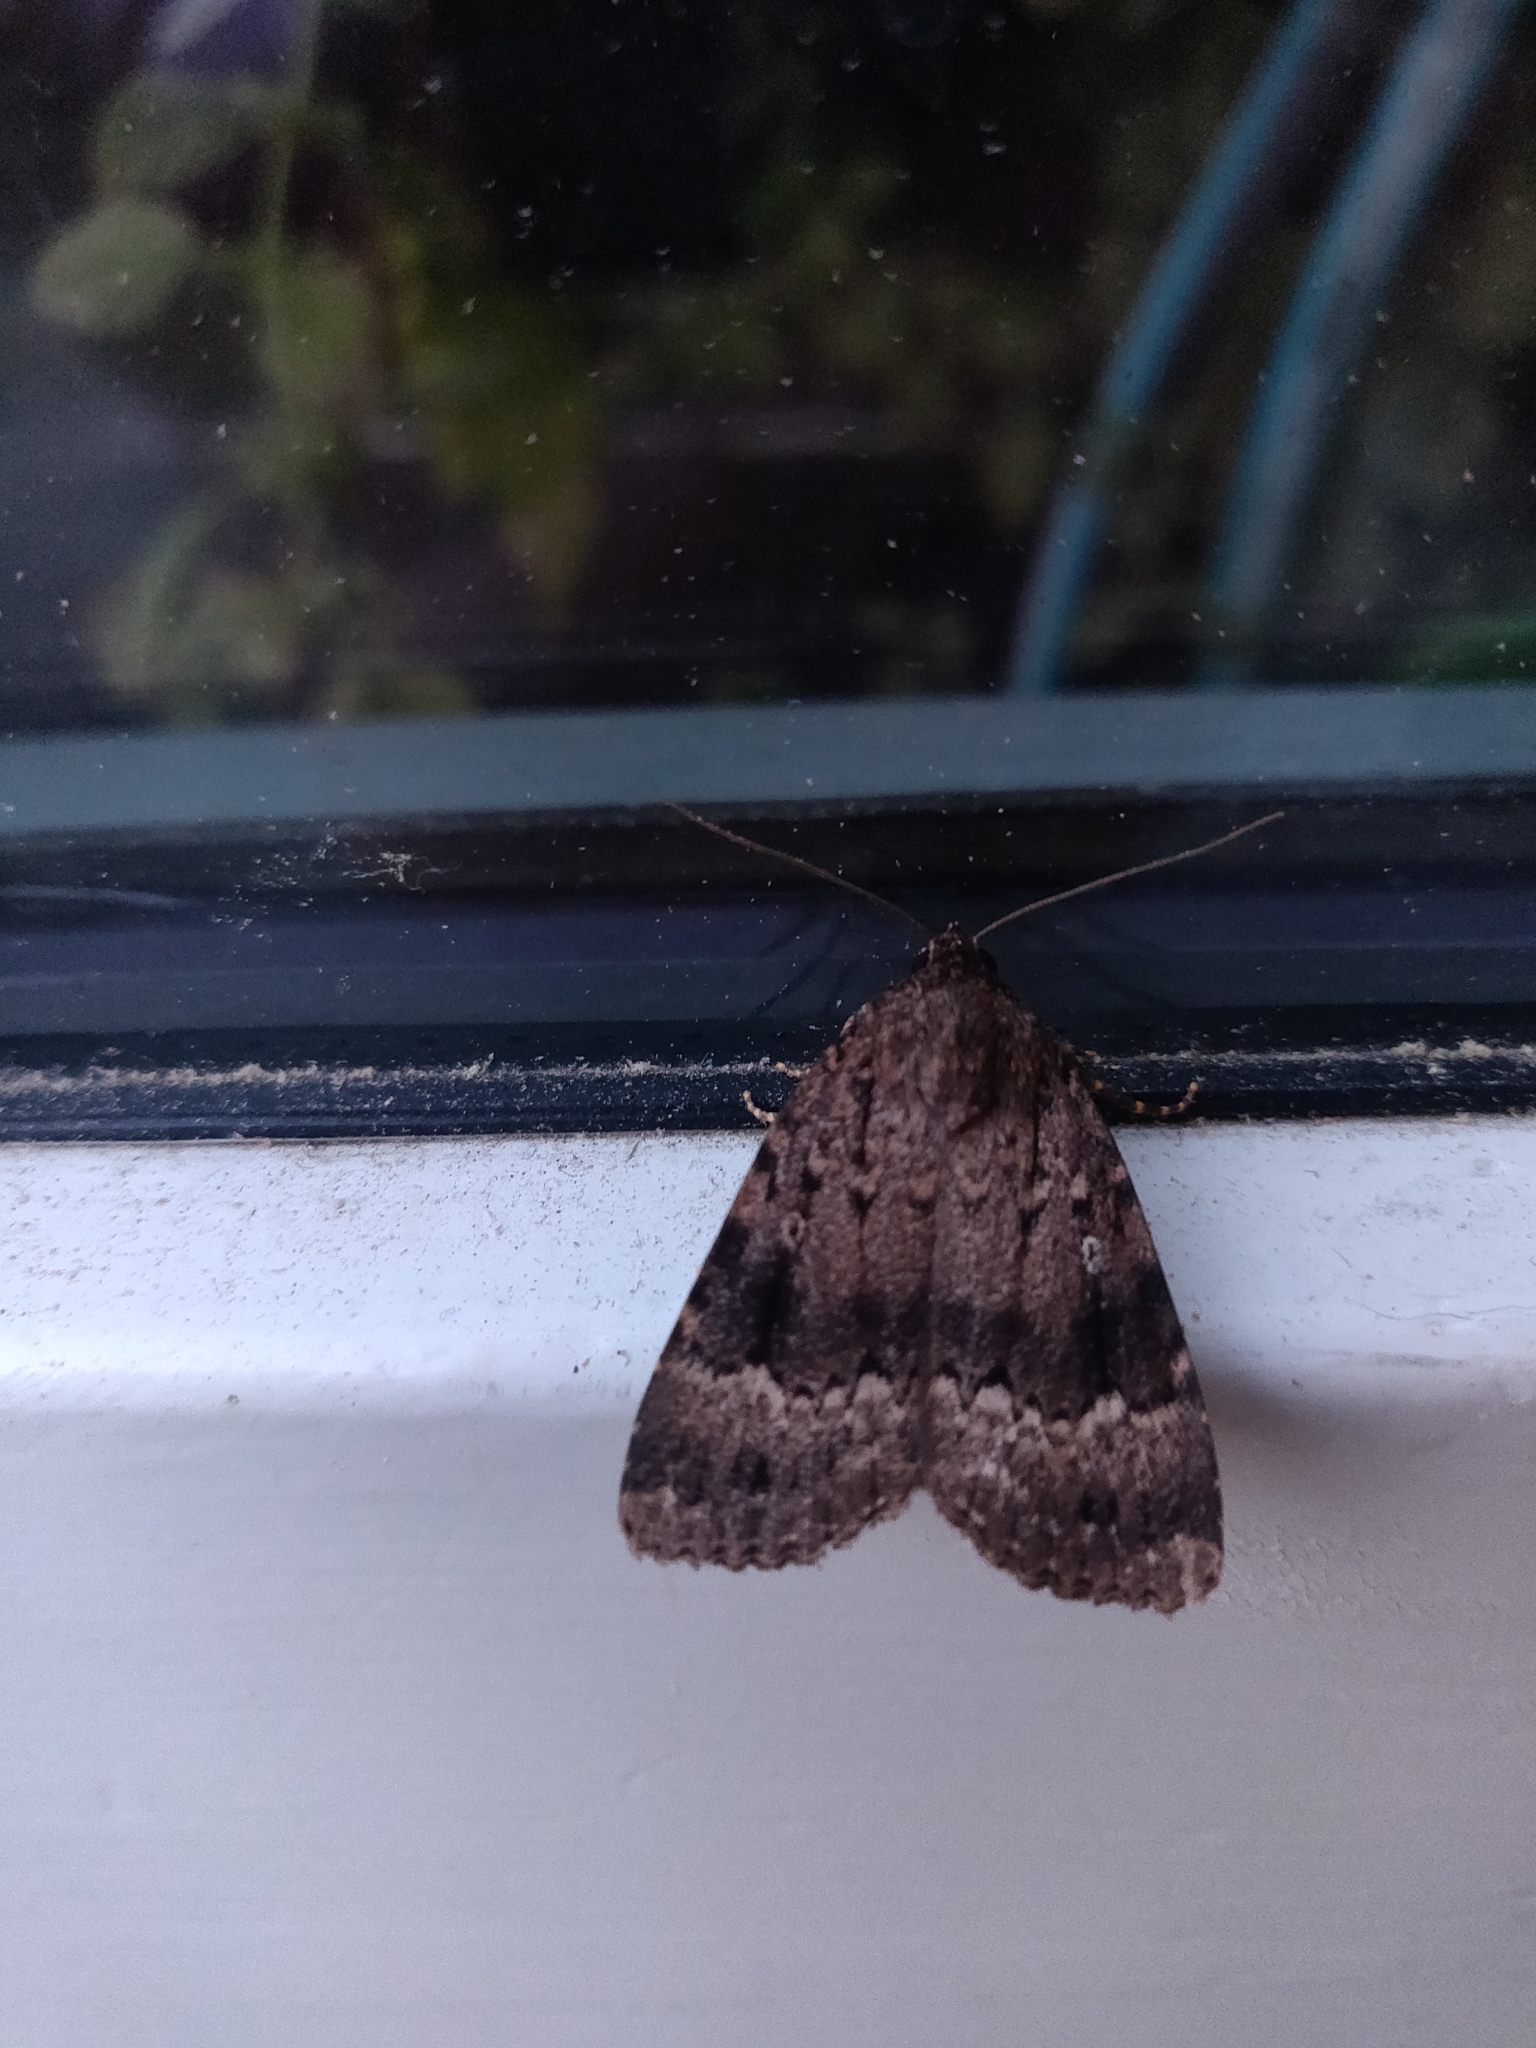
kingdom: Animalia
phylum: Arthropoda
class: Insecta
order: Lepidoptera
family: Noctuidae
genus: Amphipyra
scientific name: Amphipyra pyramidea
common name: Copper underwing
